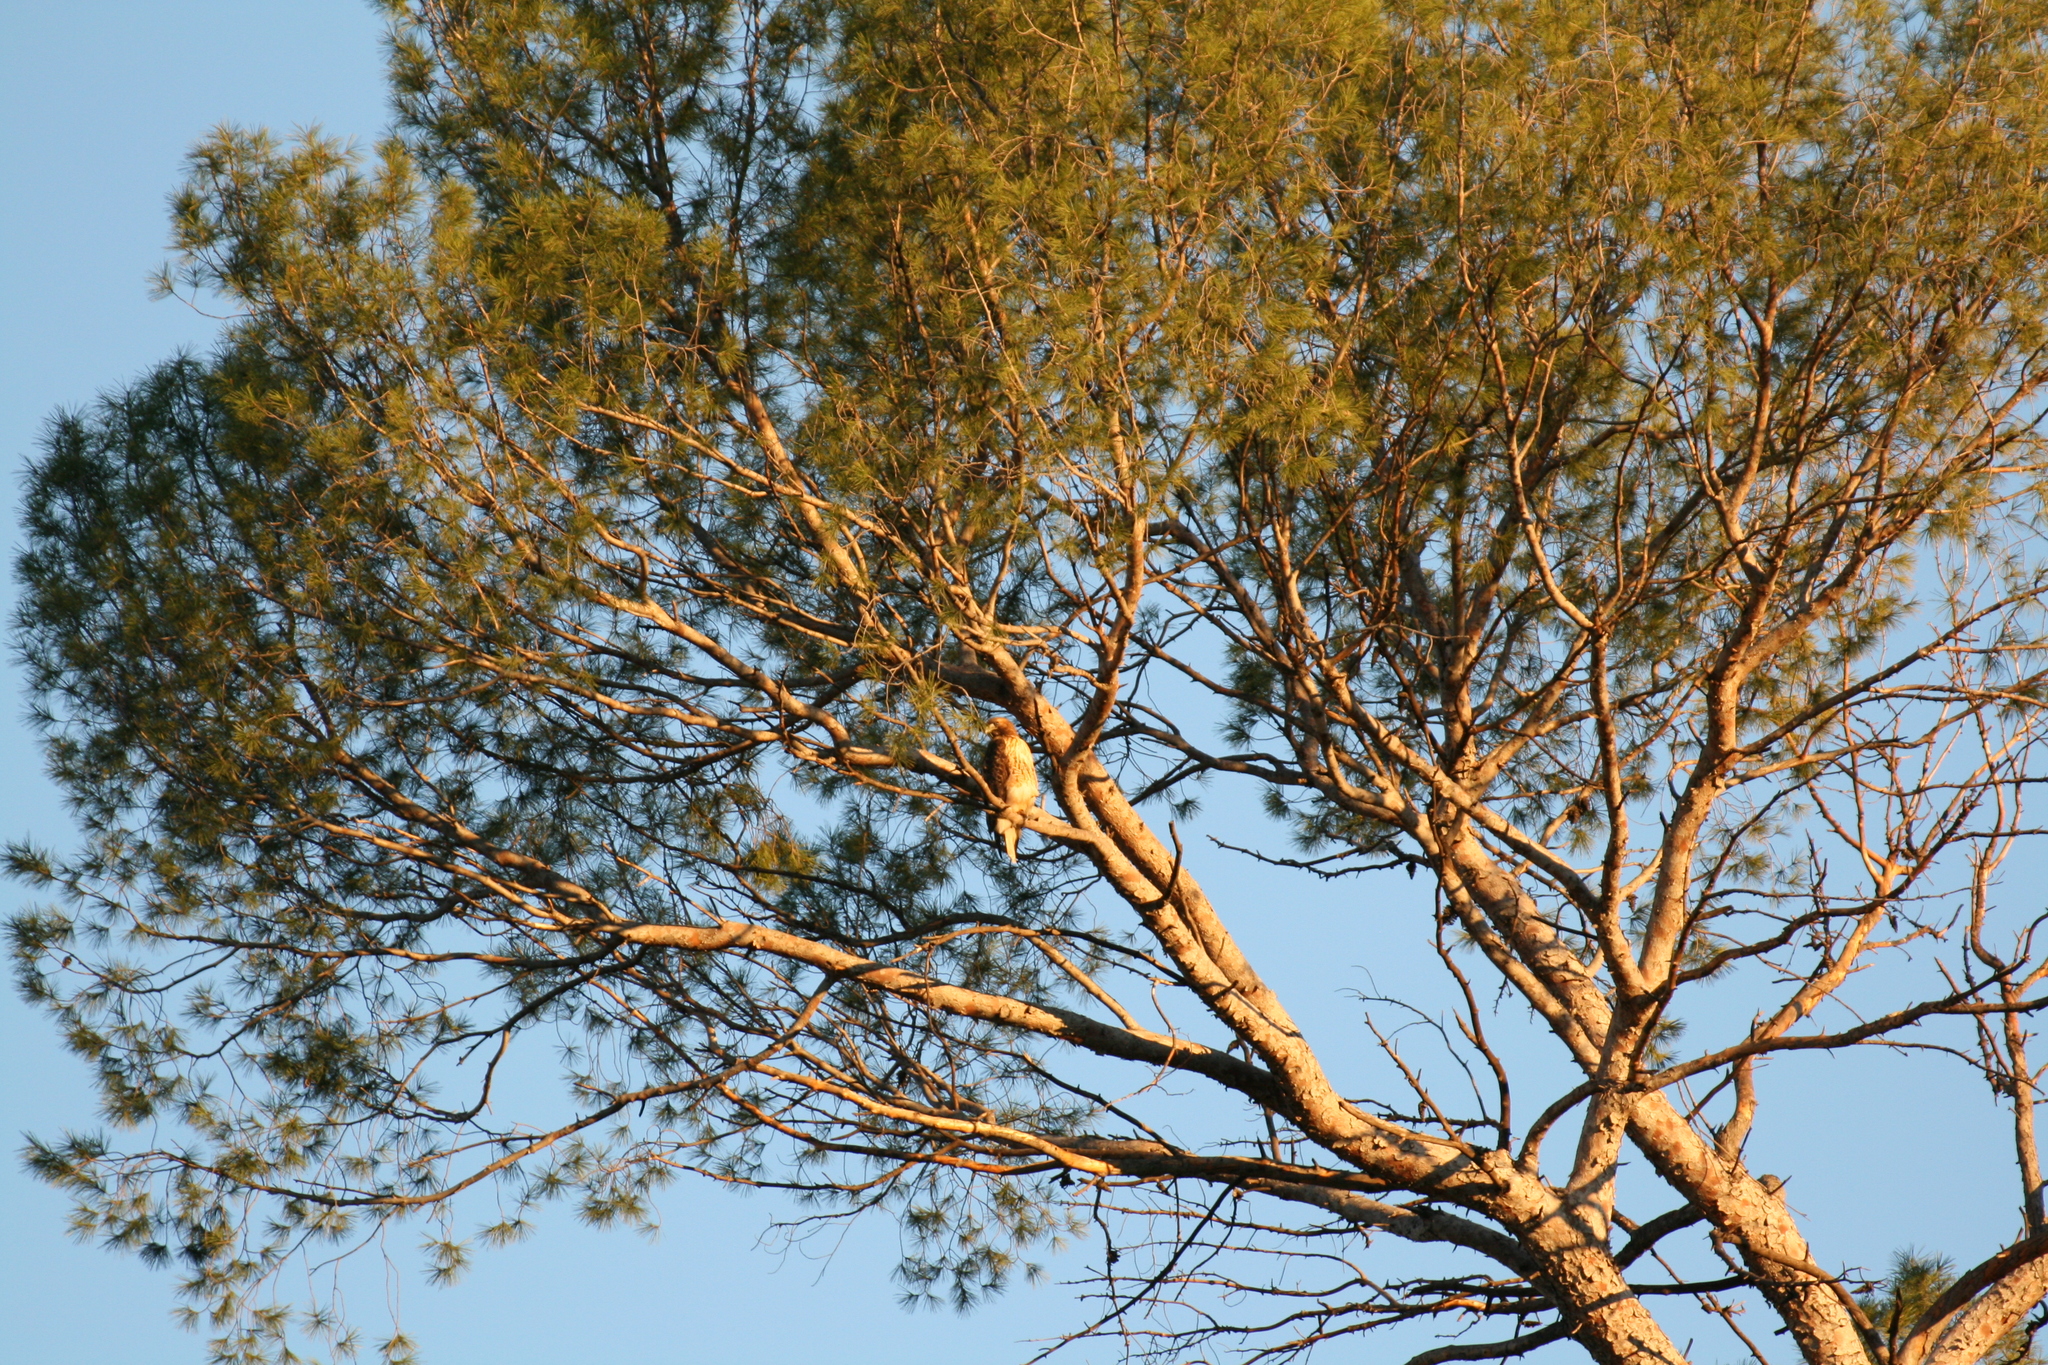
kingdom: Animalia
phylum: Chordata
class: Aves
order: Accipitriformes
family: Accipitridae
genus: Buteo
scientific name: Buteo jamaicensis
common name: Red-tailed hawk
